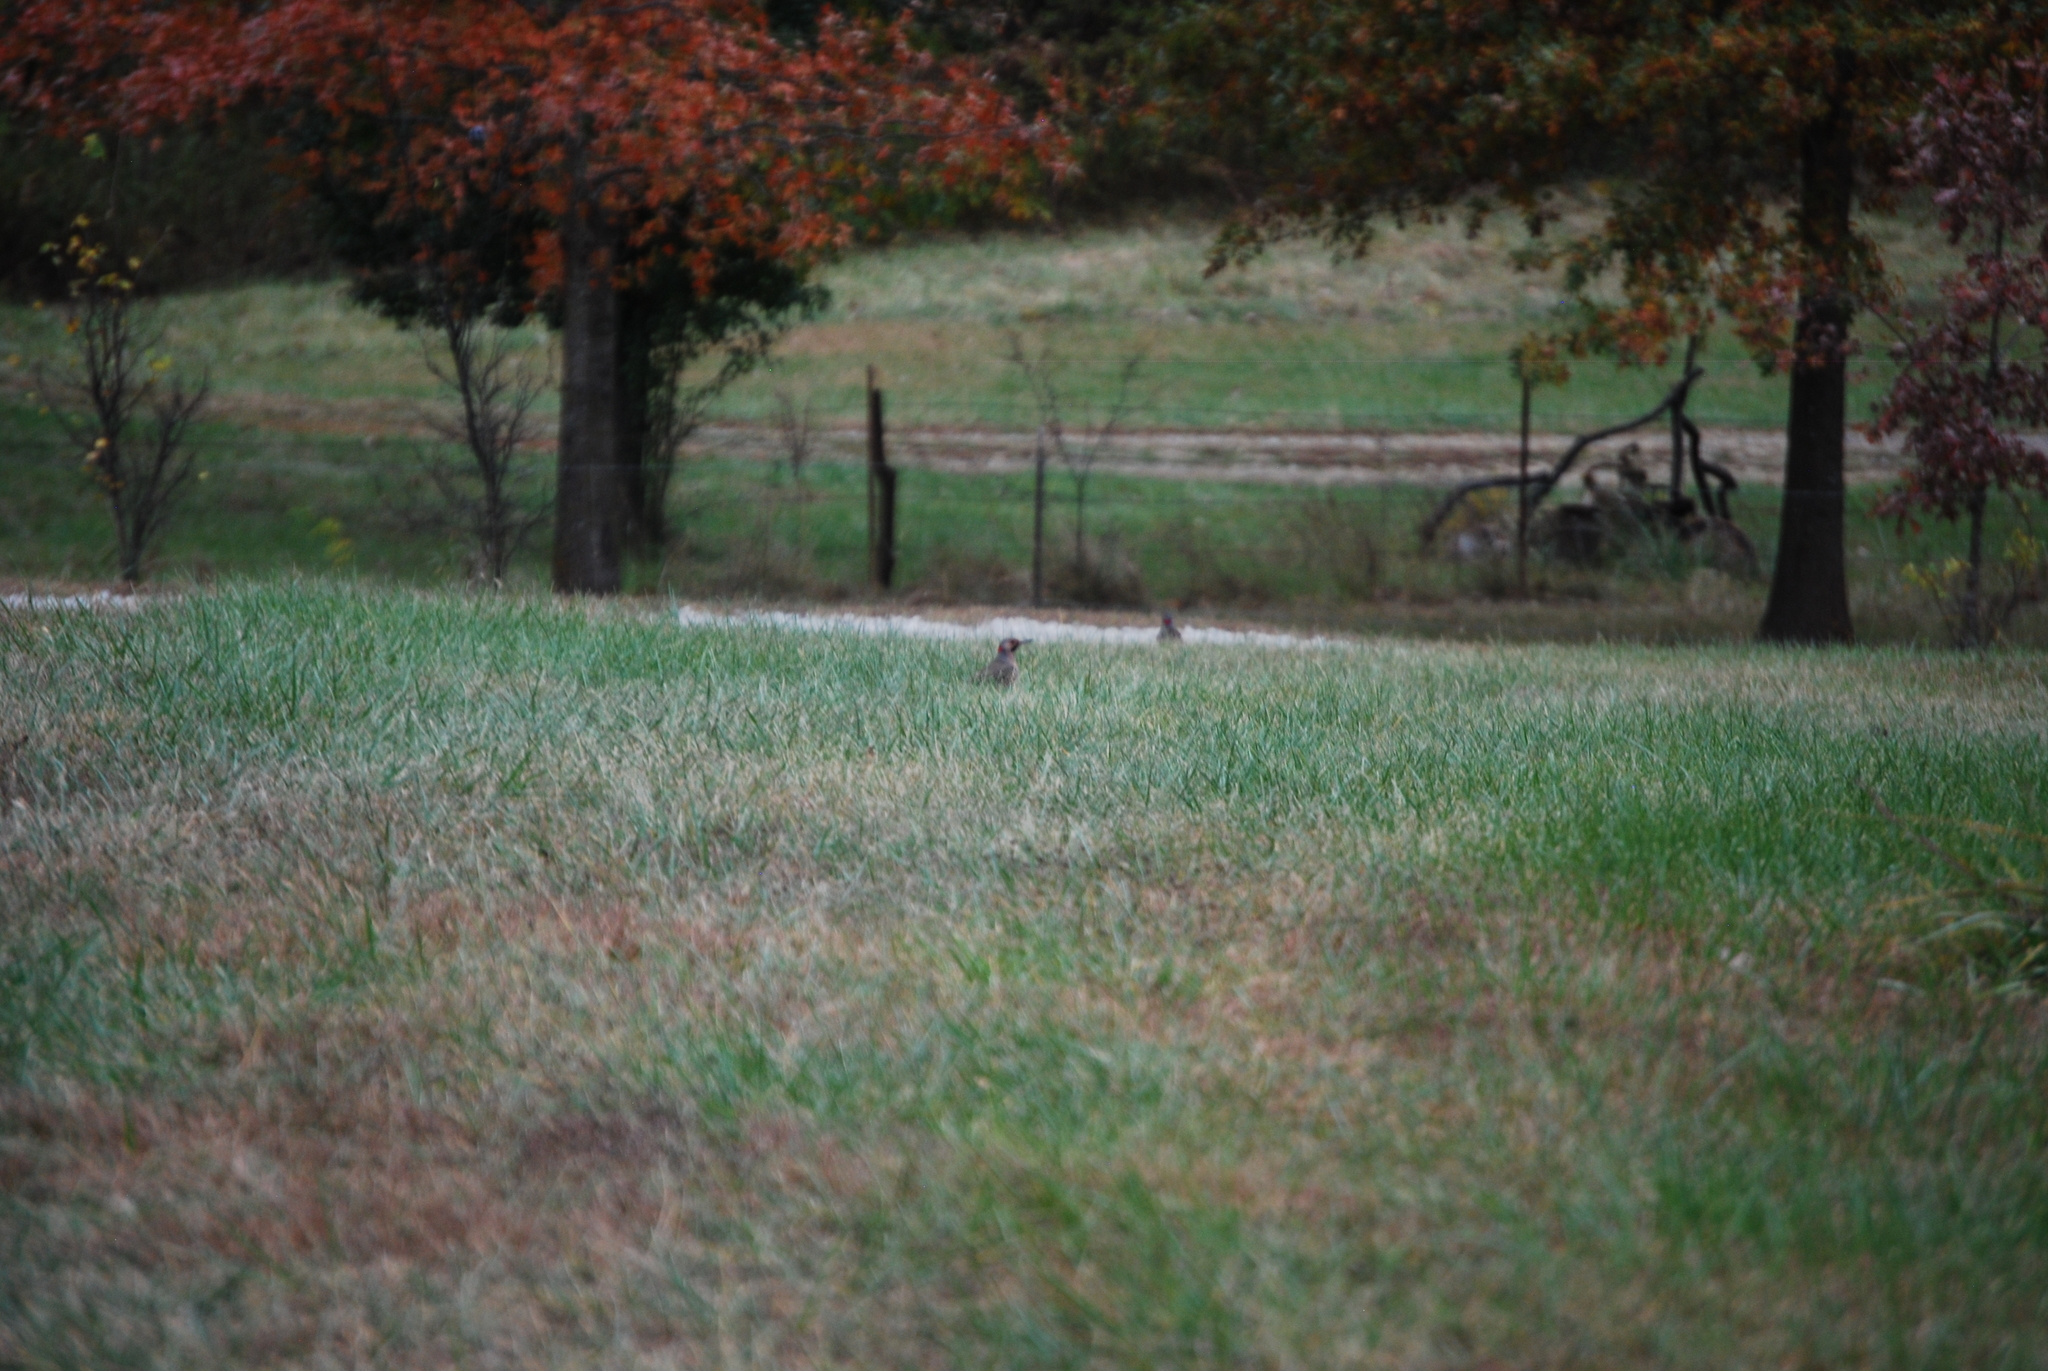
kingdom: Animalia
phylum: Chordata
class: Aves
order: Piciformes
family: Picidae
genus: Colaptes
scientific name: Colaptes auratus
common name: Northern flicker
